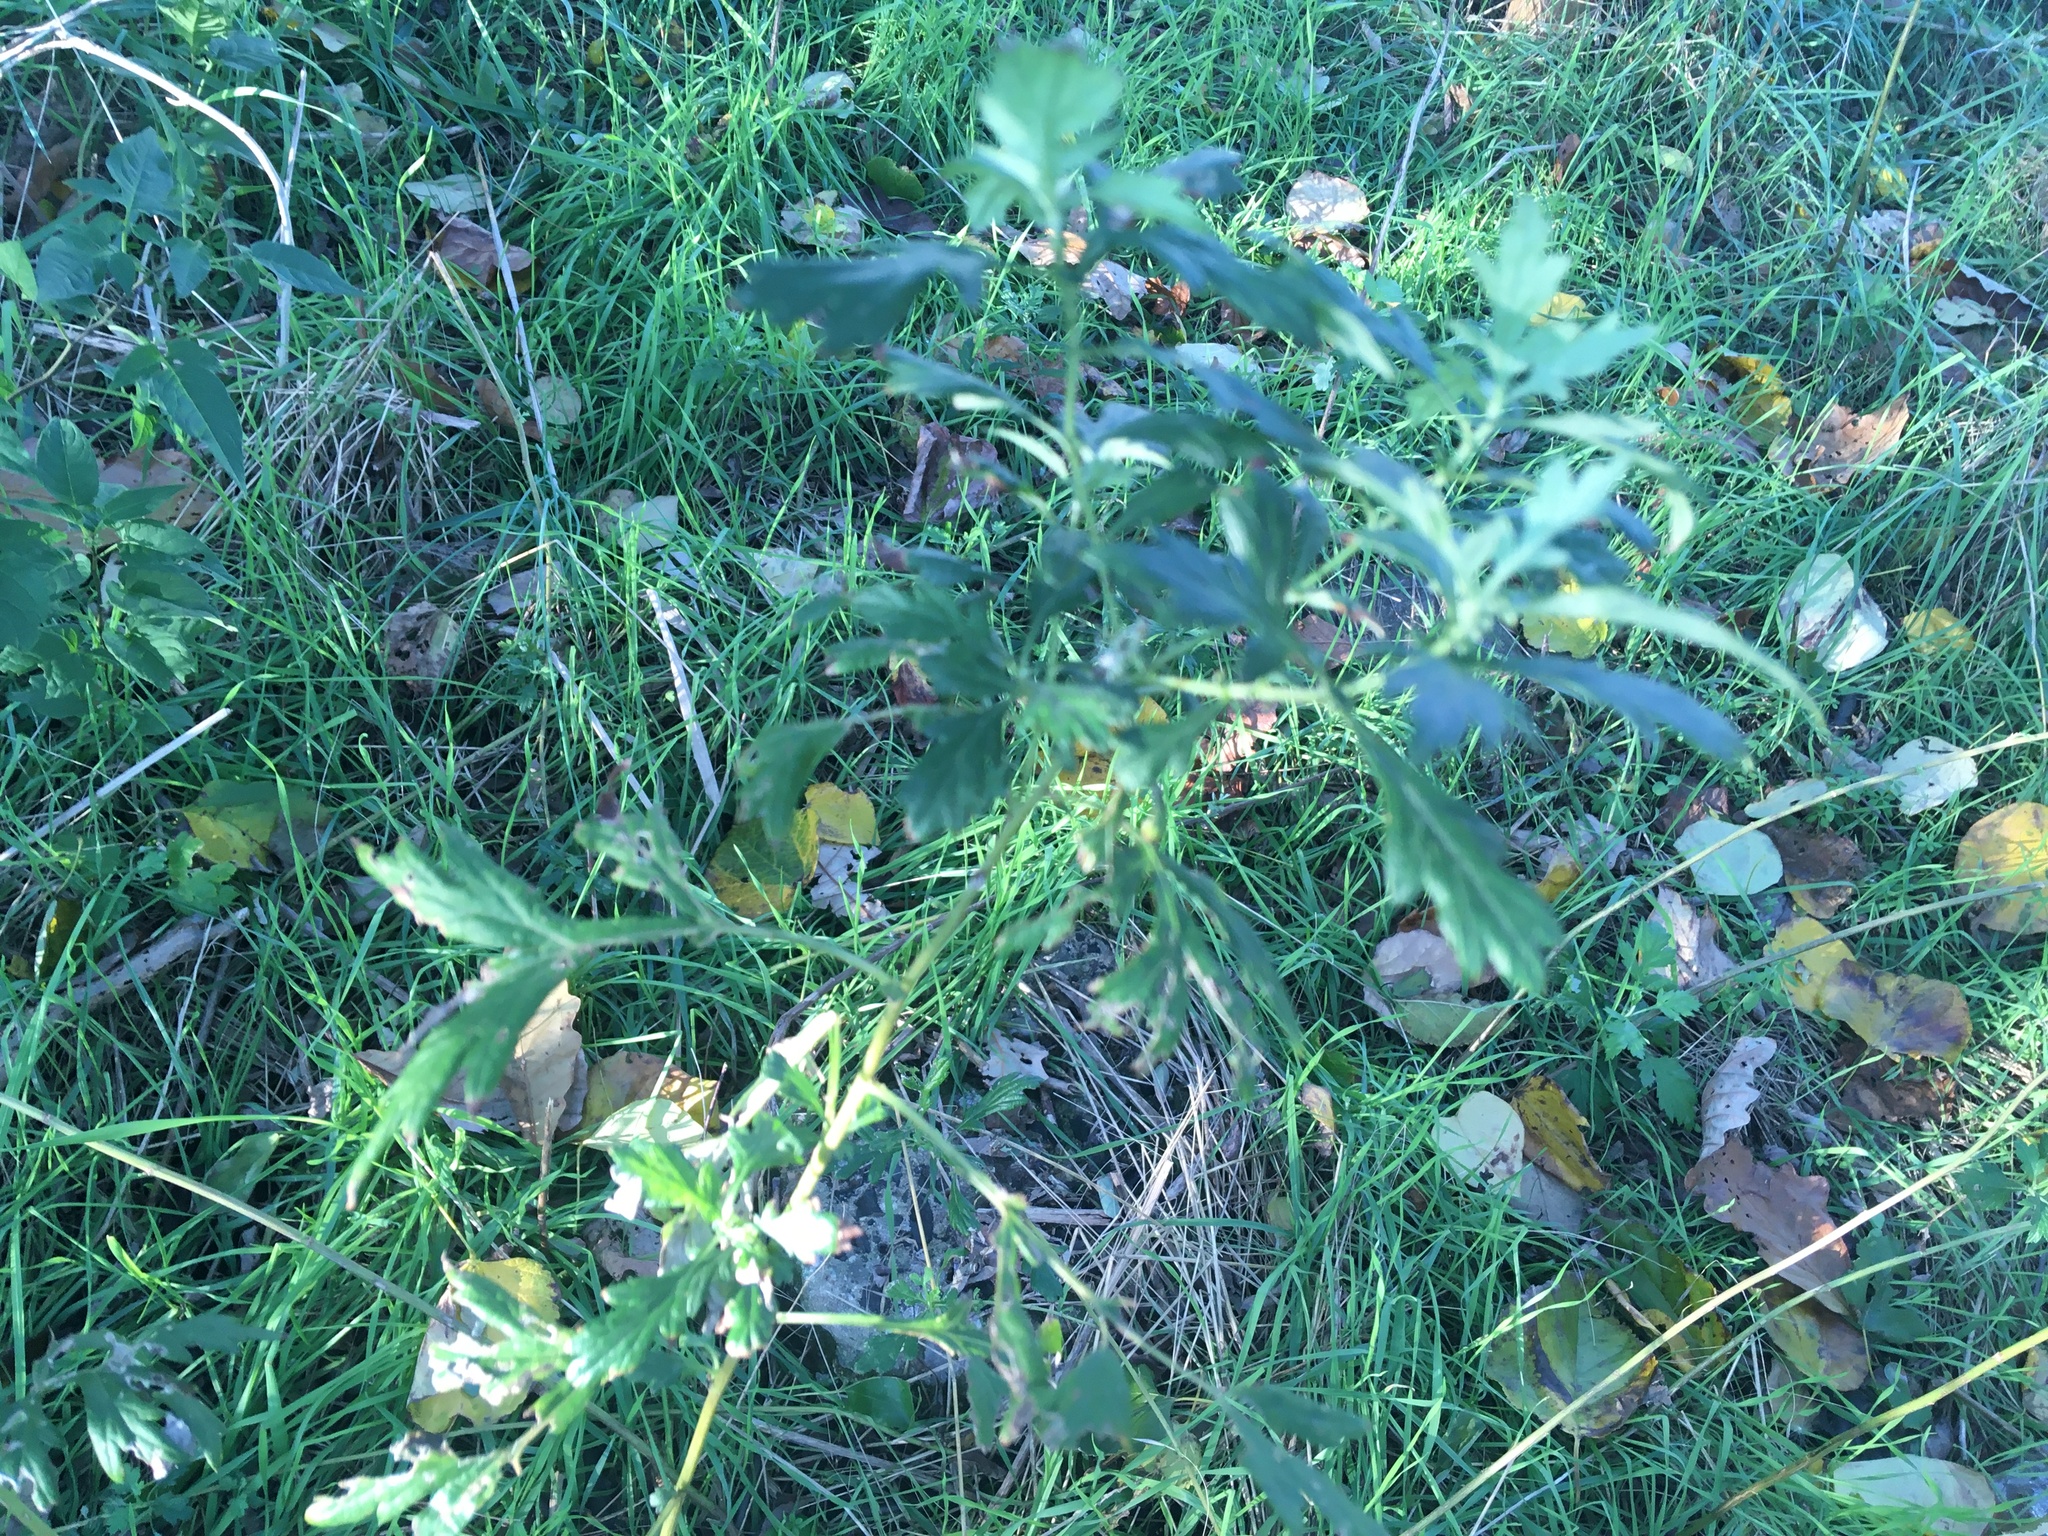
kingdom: Plantae
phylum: Tracheophyta
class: Magnoliopsida
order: Asterales
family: Asteraceae
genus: Artemisia
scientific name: Artemisia vulgaris
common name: Mugwort
